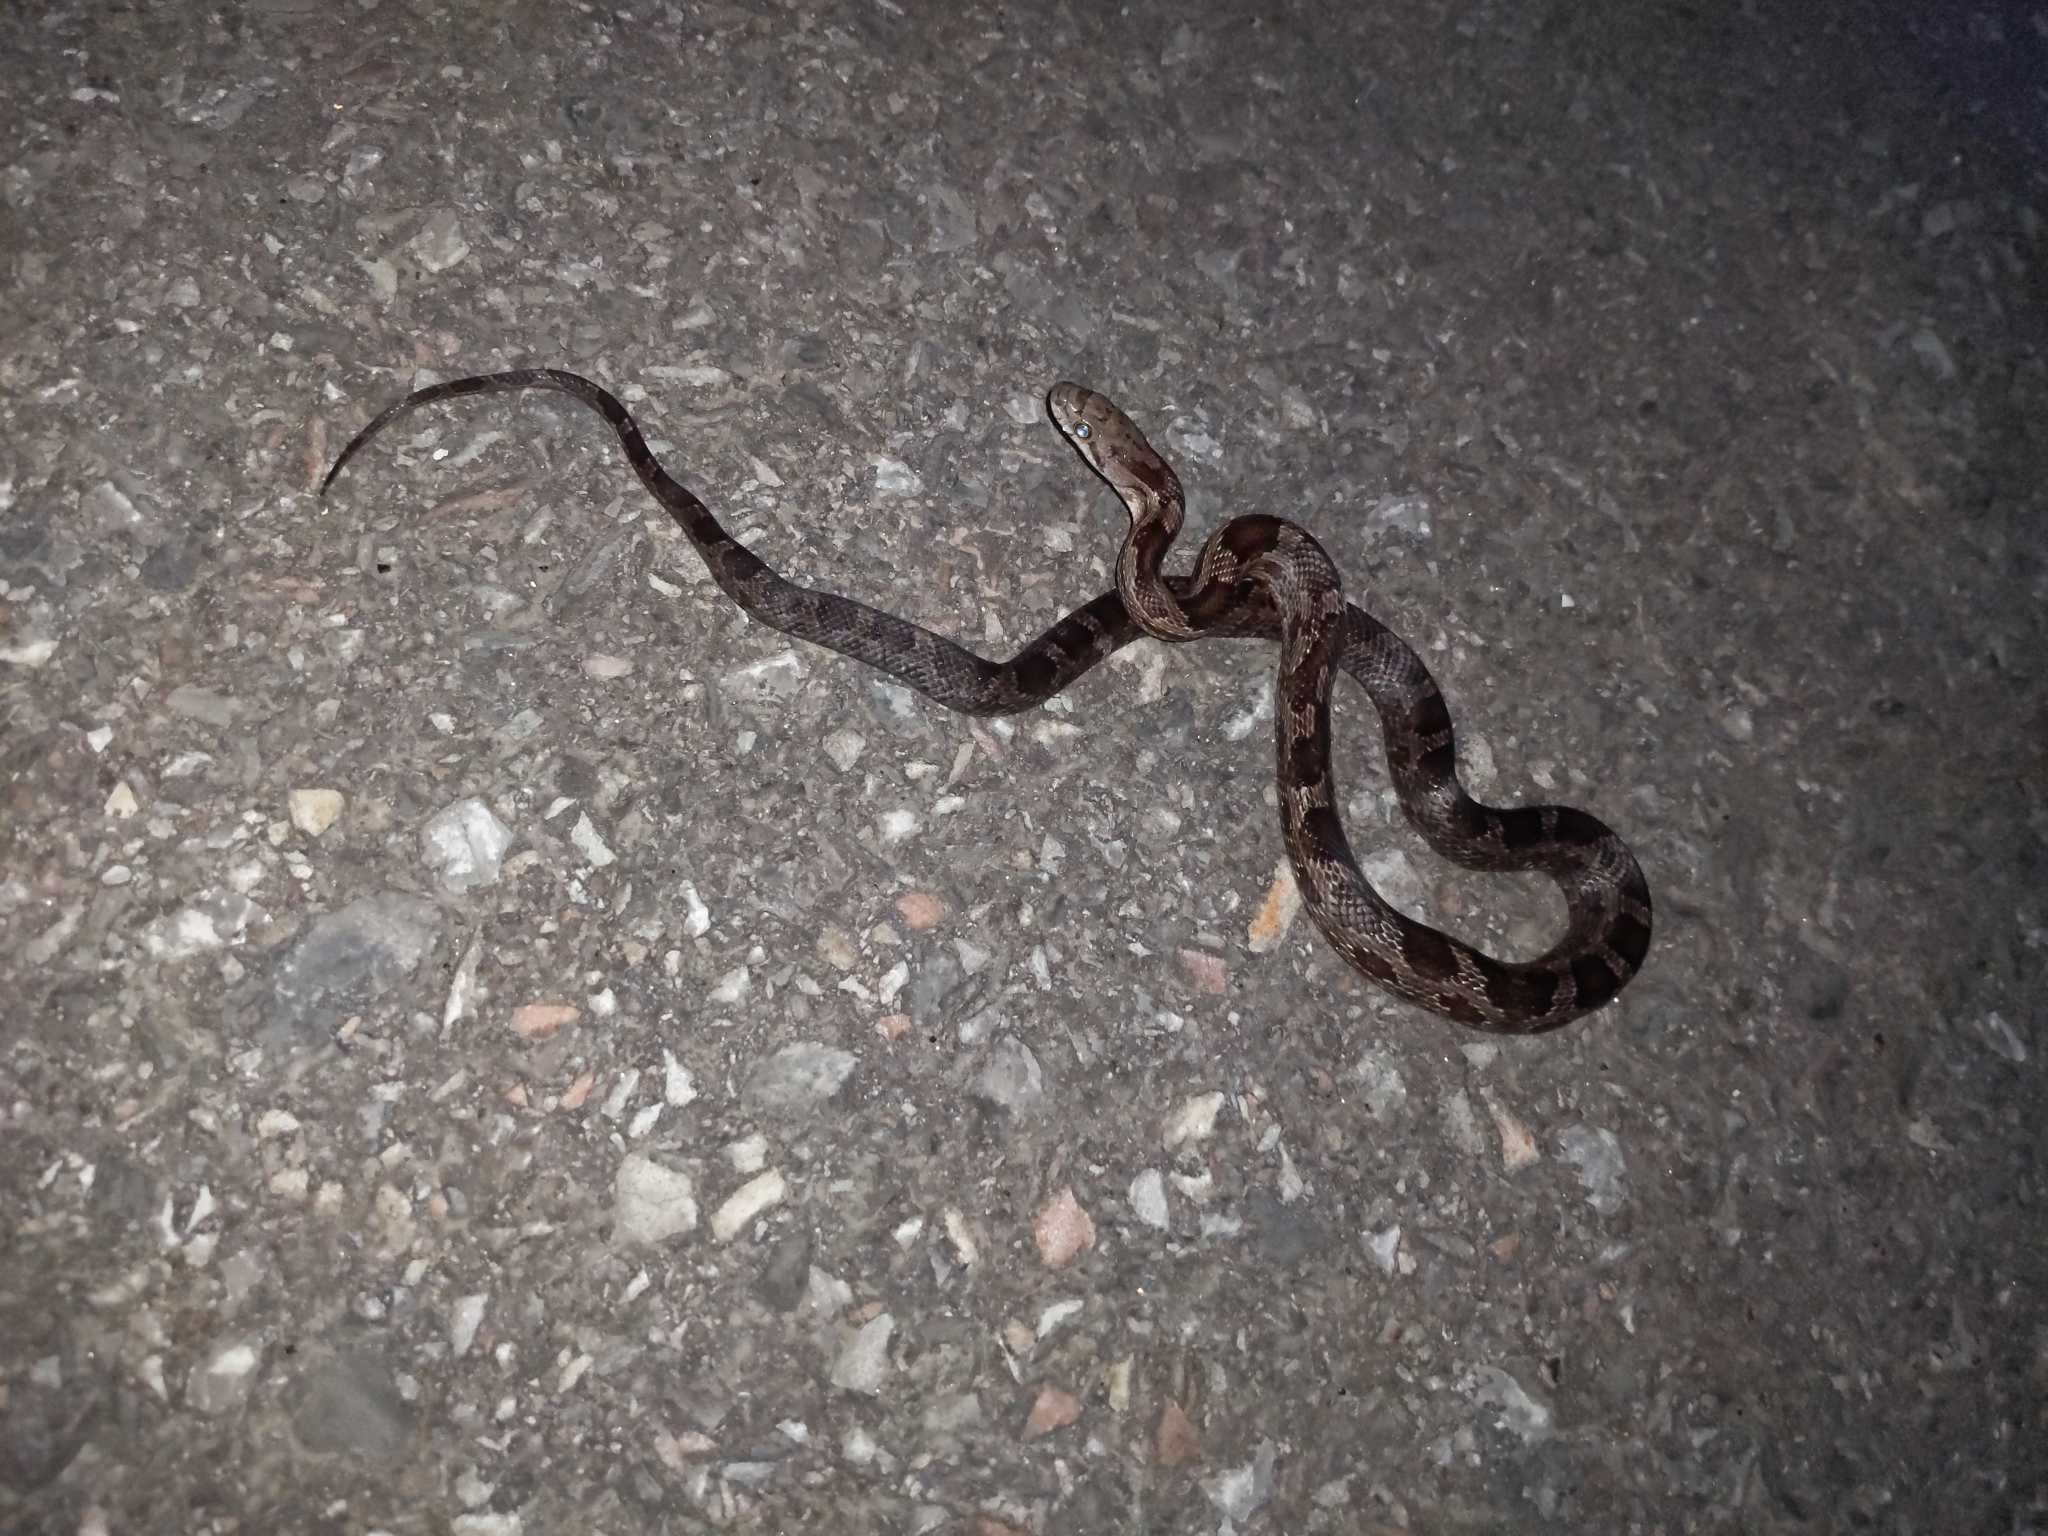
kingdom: Animalia
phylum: Chordata
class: Squamata
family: Colubridae
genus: Pantherophis
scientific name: Pantherophis spiloides
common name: Gray rat snake
